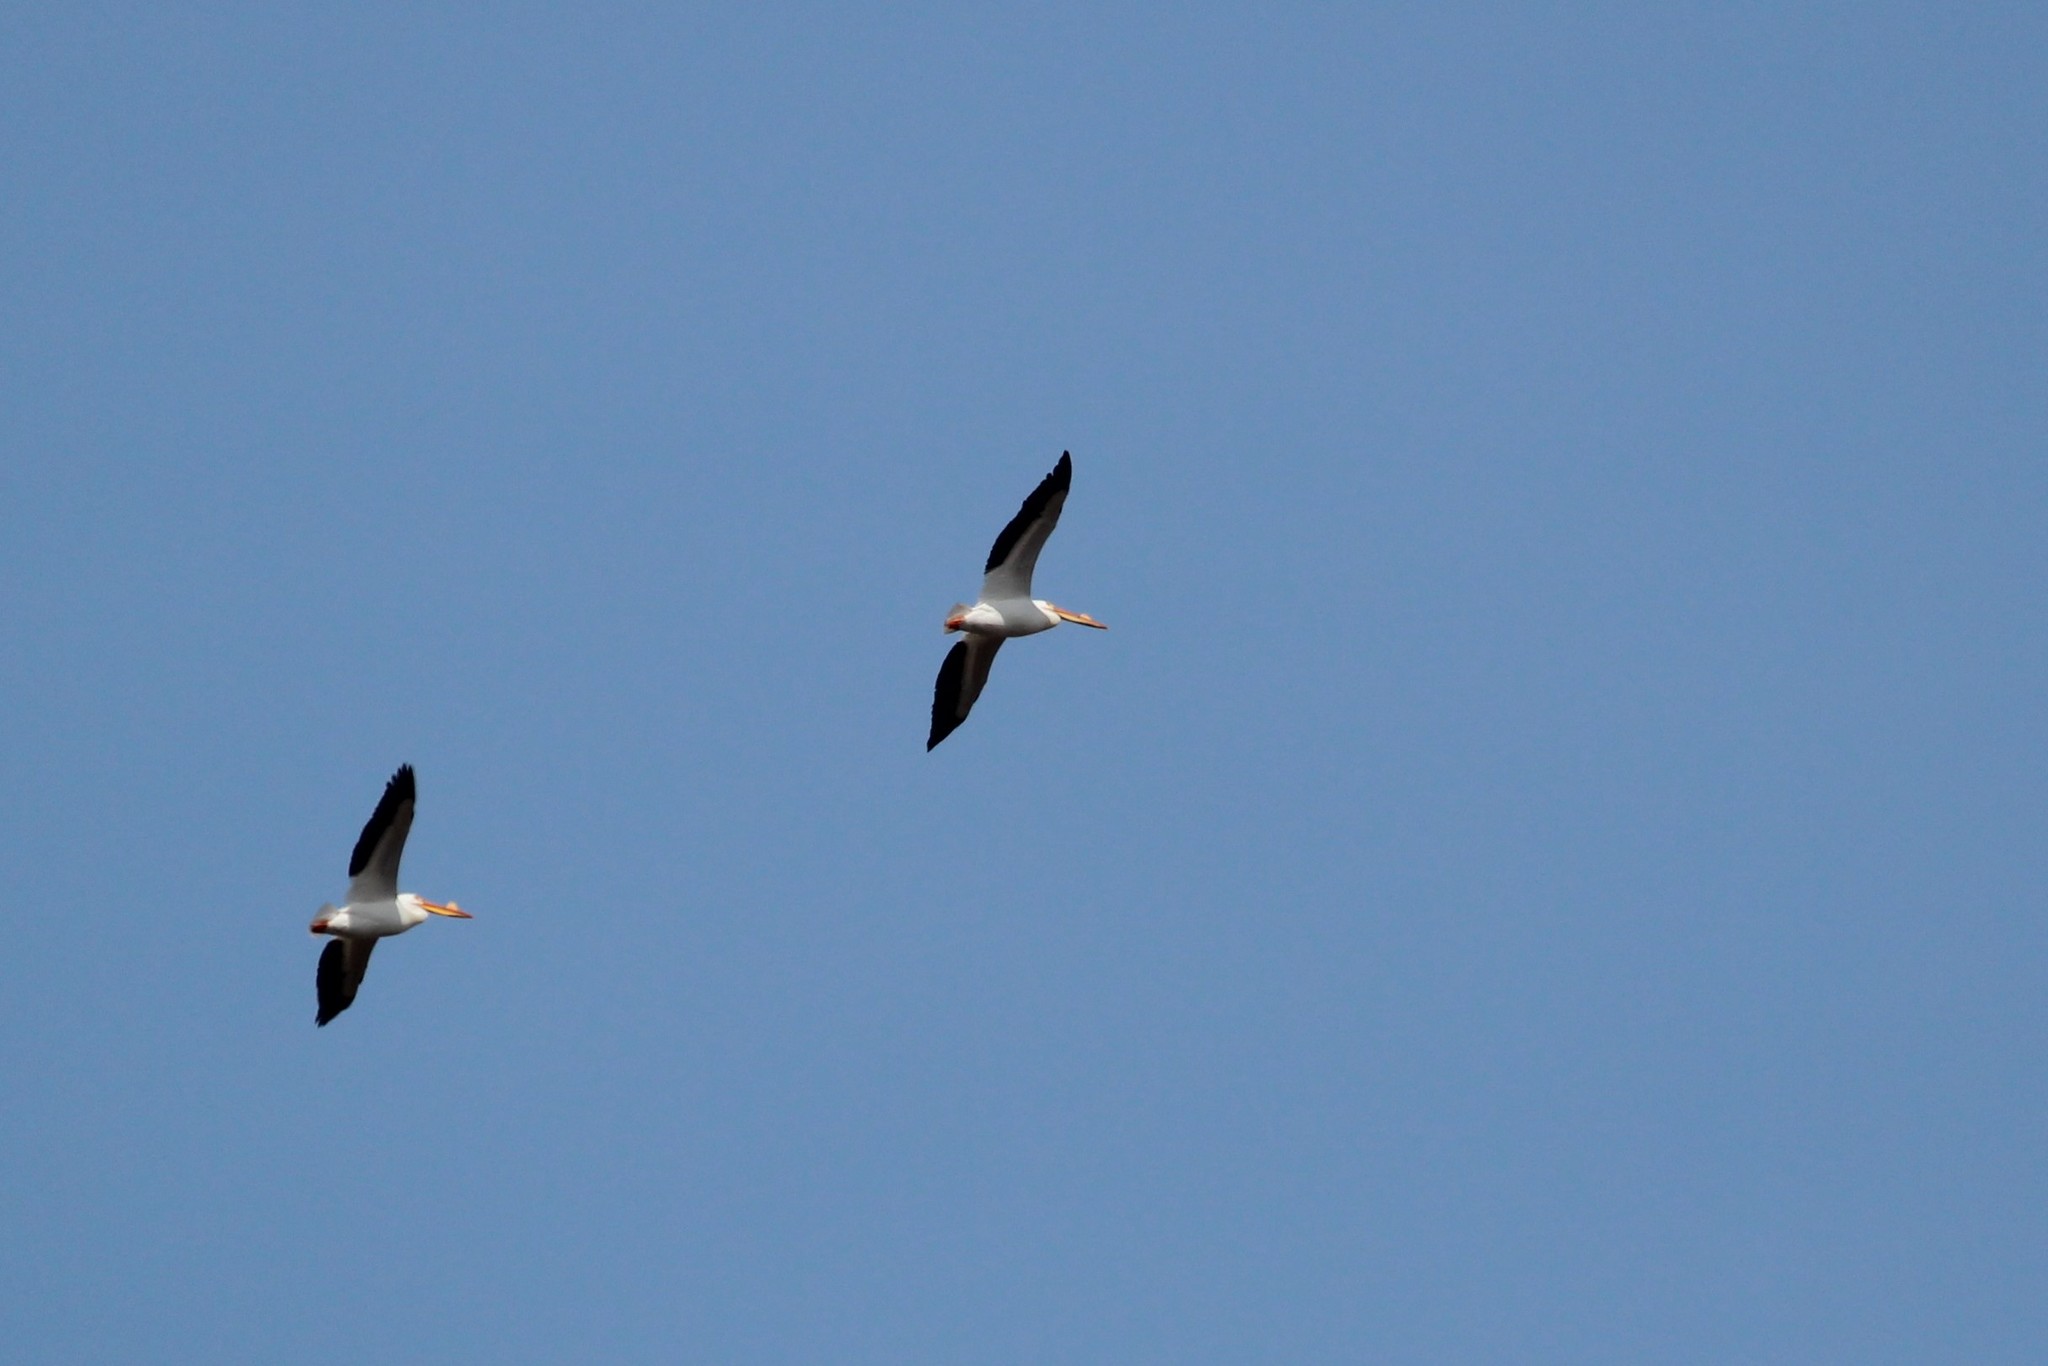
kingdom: Animalia
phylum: Chordata
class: Aves
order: Pelecaniformes
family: Pelecanidae
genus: Pelecanus
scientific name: Pelecanus erythrorhynchos
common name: American white pelican
